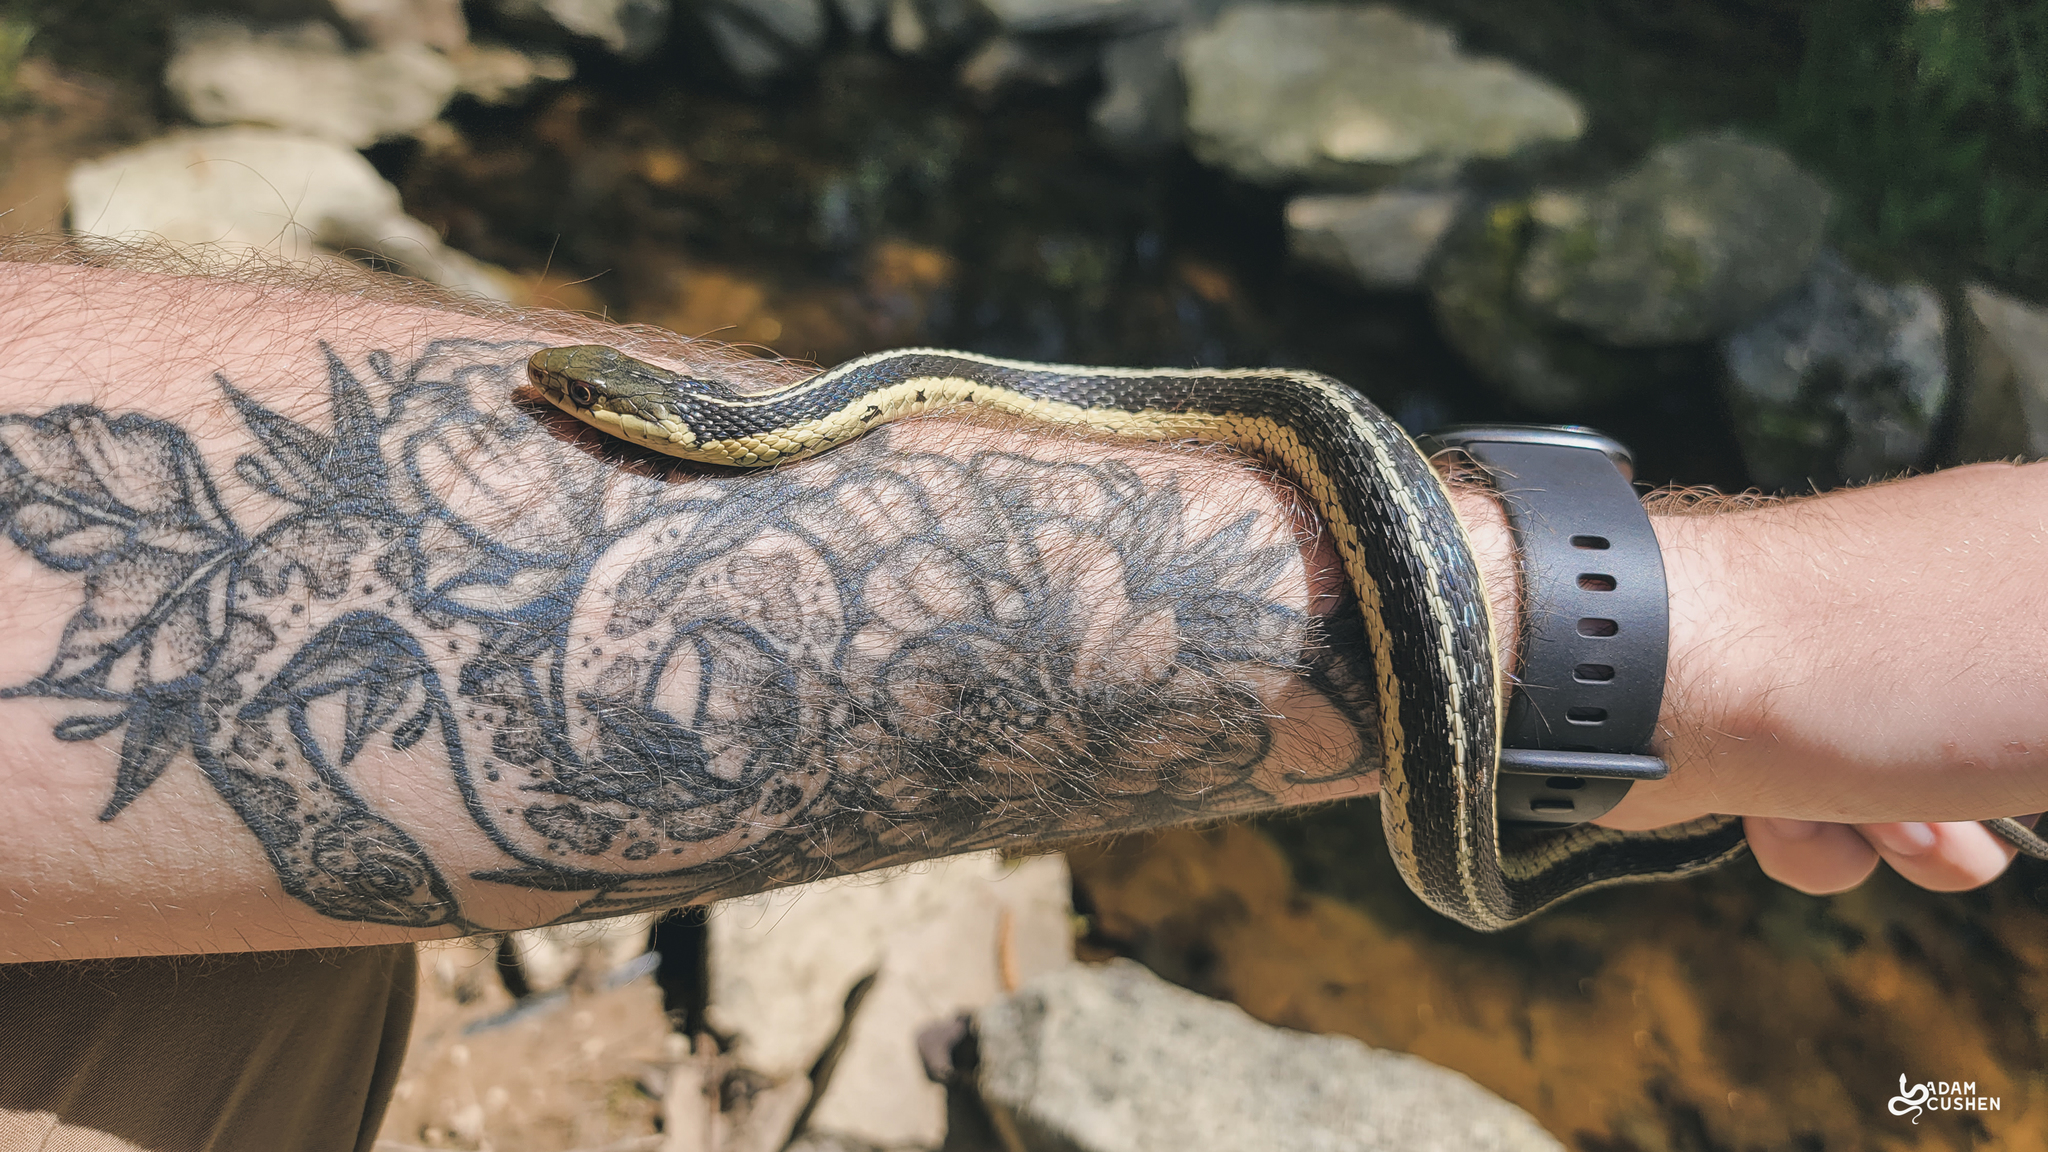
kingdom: Animalia
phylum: Chordata
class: Squamata
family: Colubridae
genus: Thamnophis
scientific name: Thamnophis sirtalis
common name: Common garter snake
